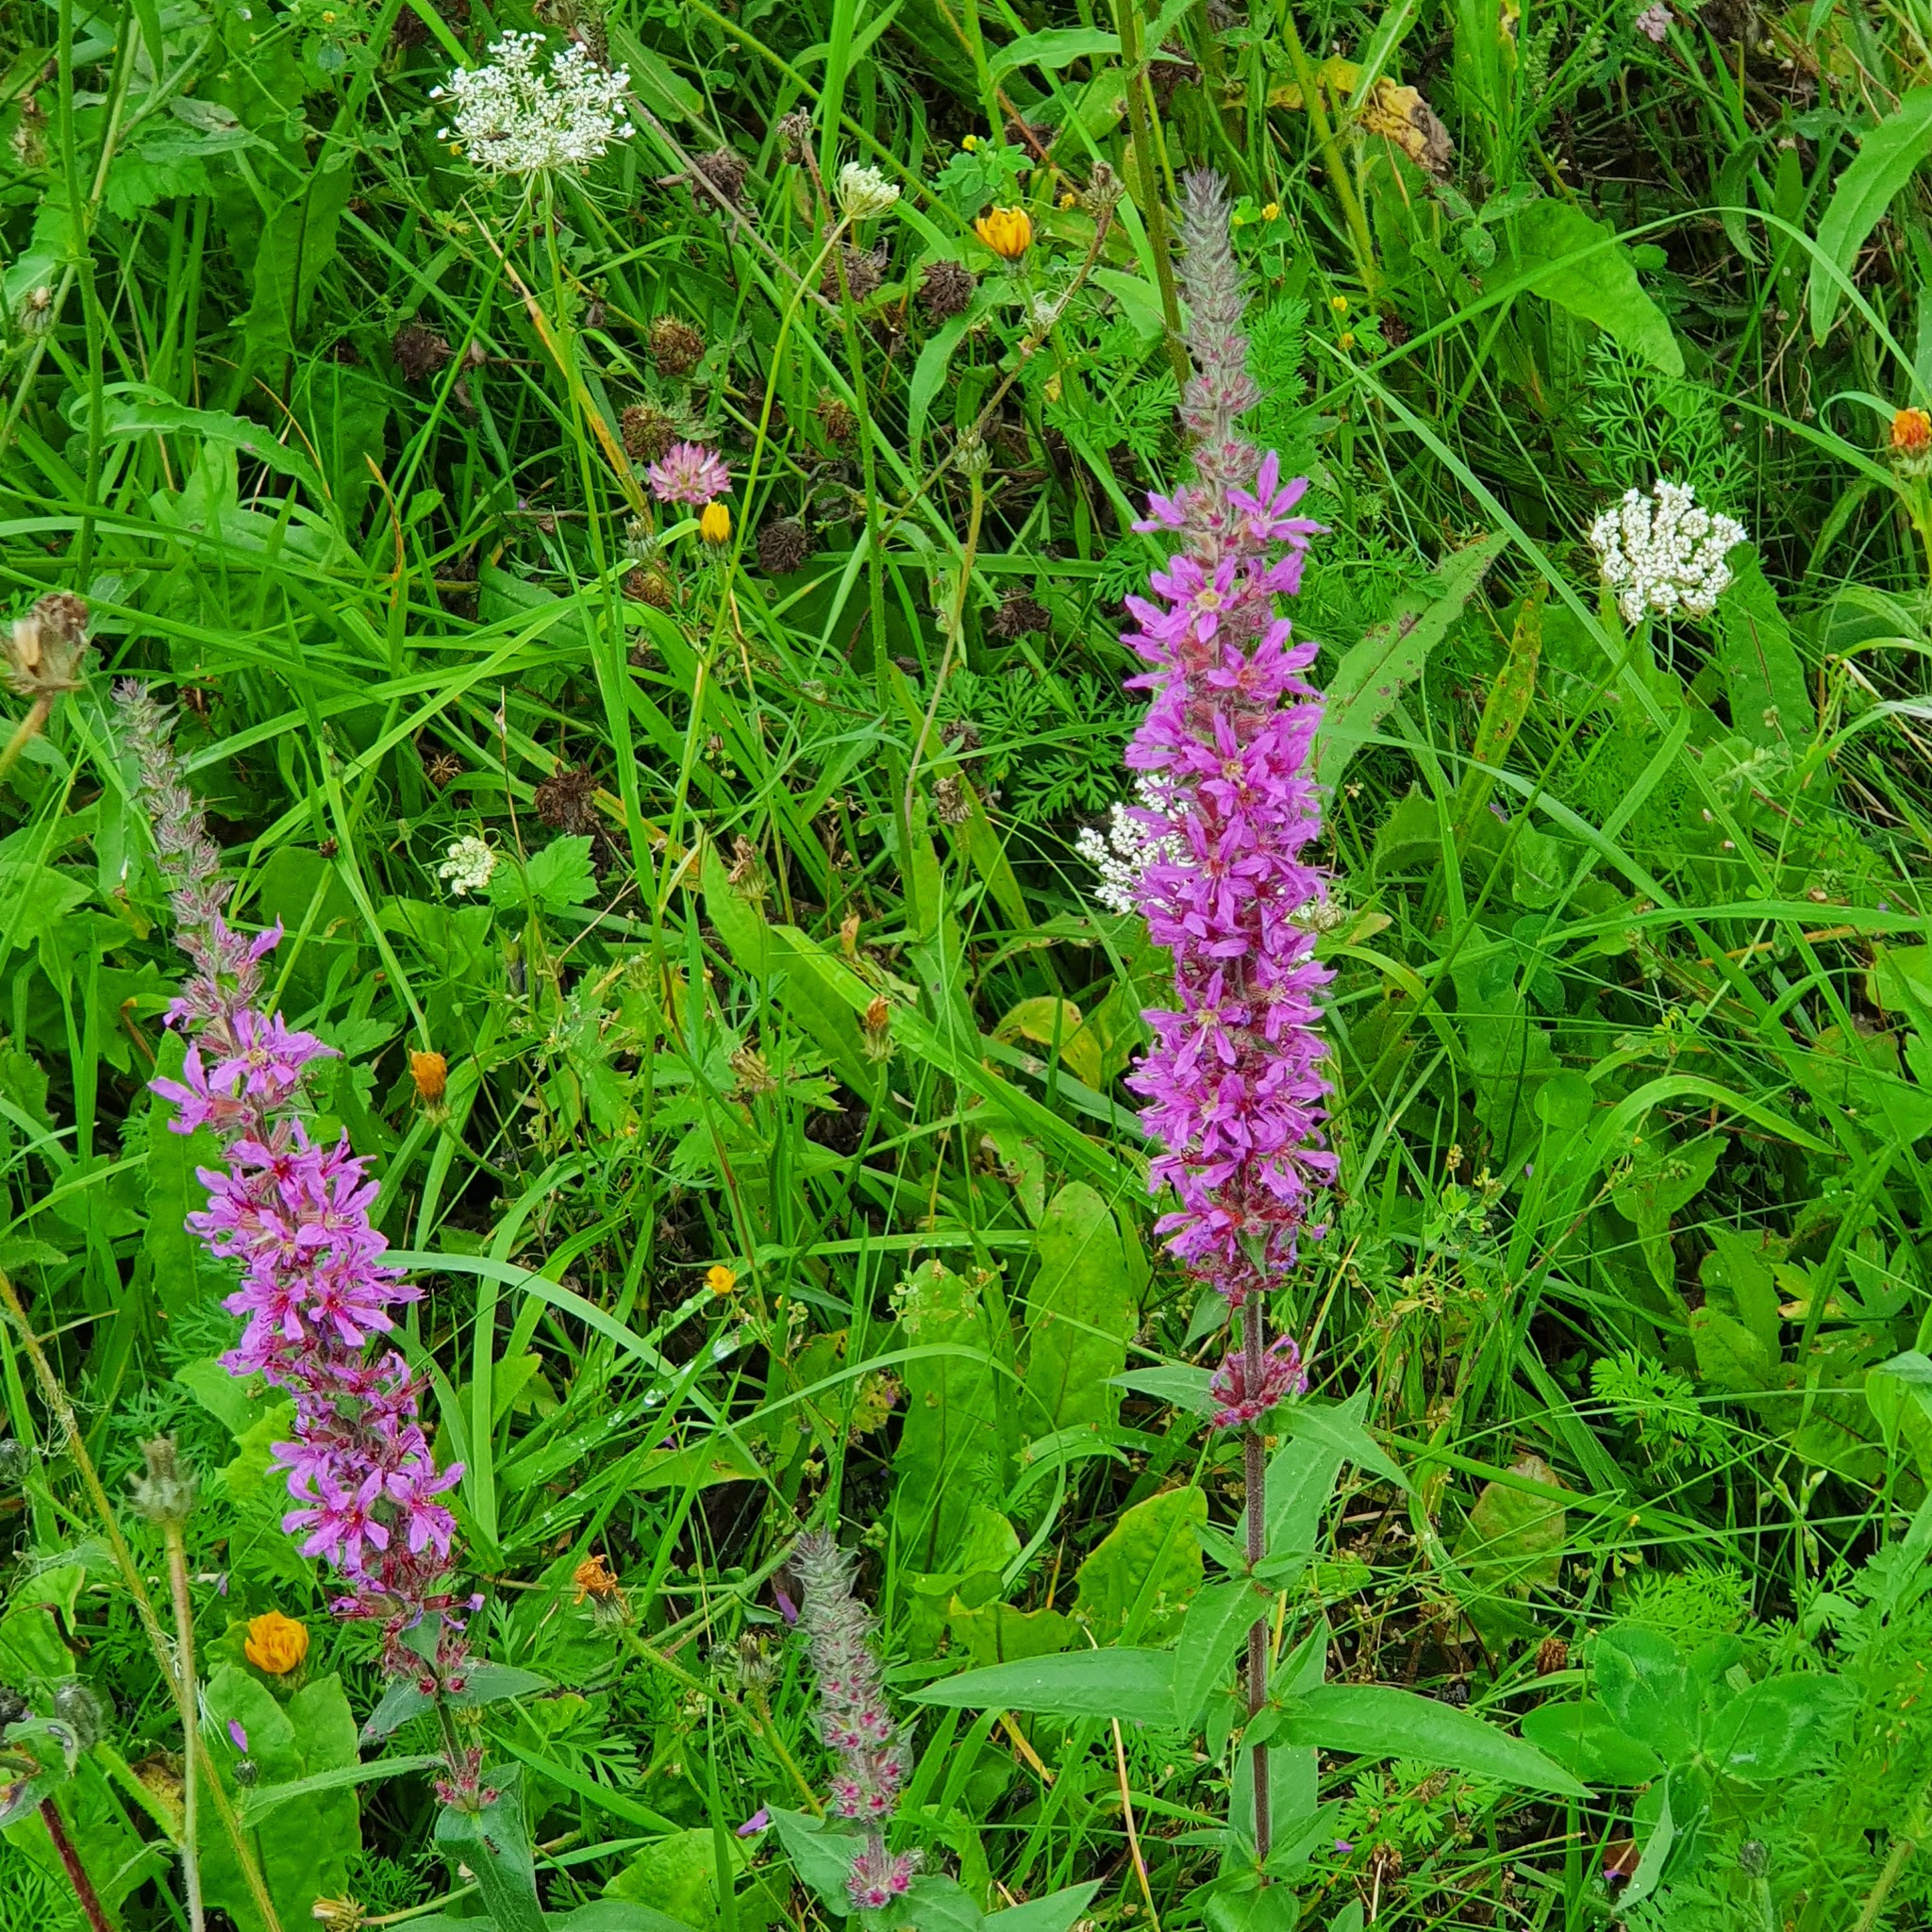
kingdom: Plantae
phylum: Tracheophyta
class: Magnoliopsida
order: Myrtales
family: Lythraceae
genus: Lythrum
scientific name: Lythrum salicaria
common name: Purple loosestrife
